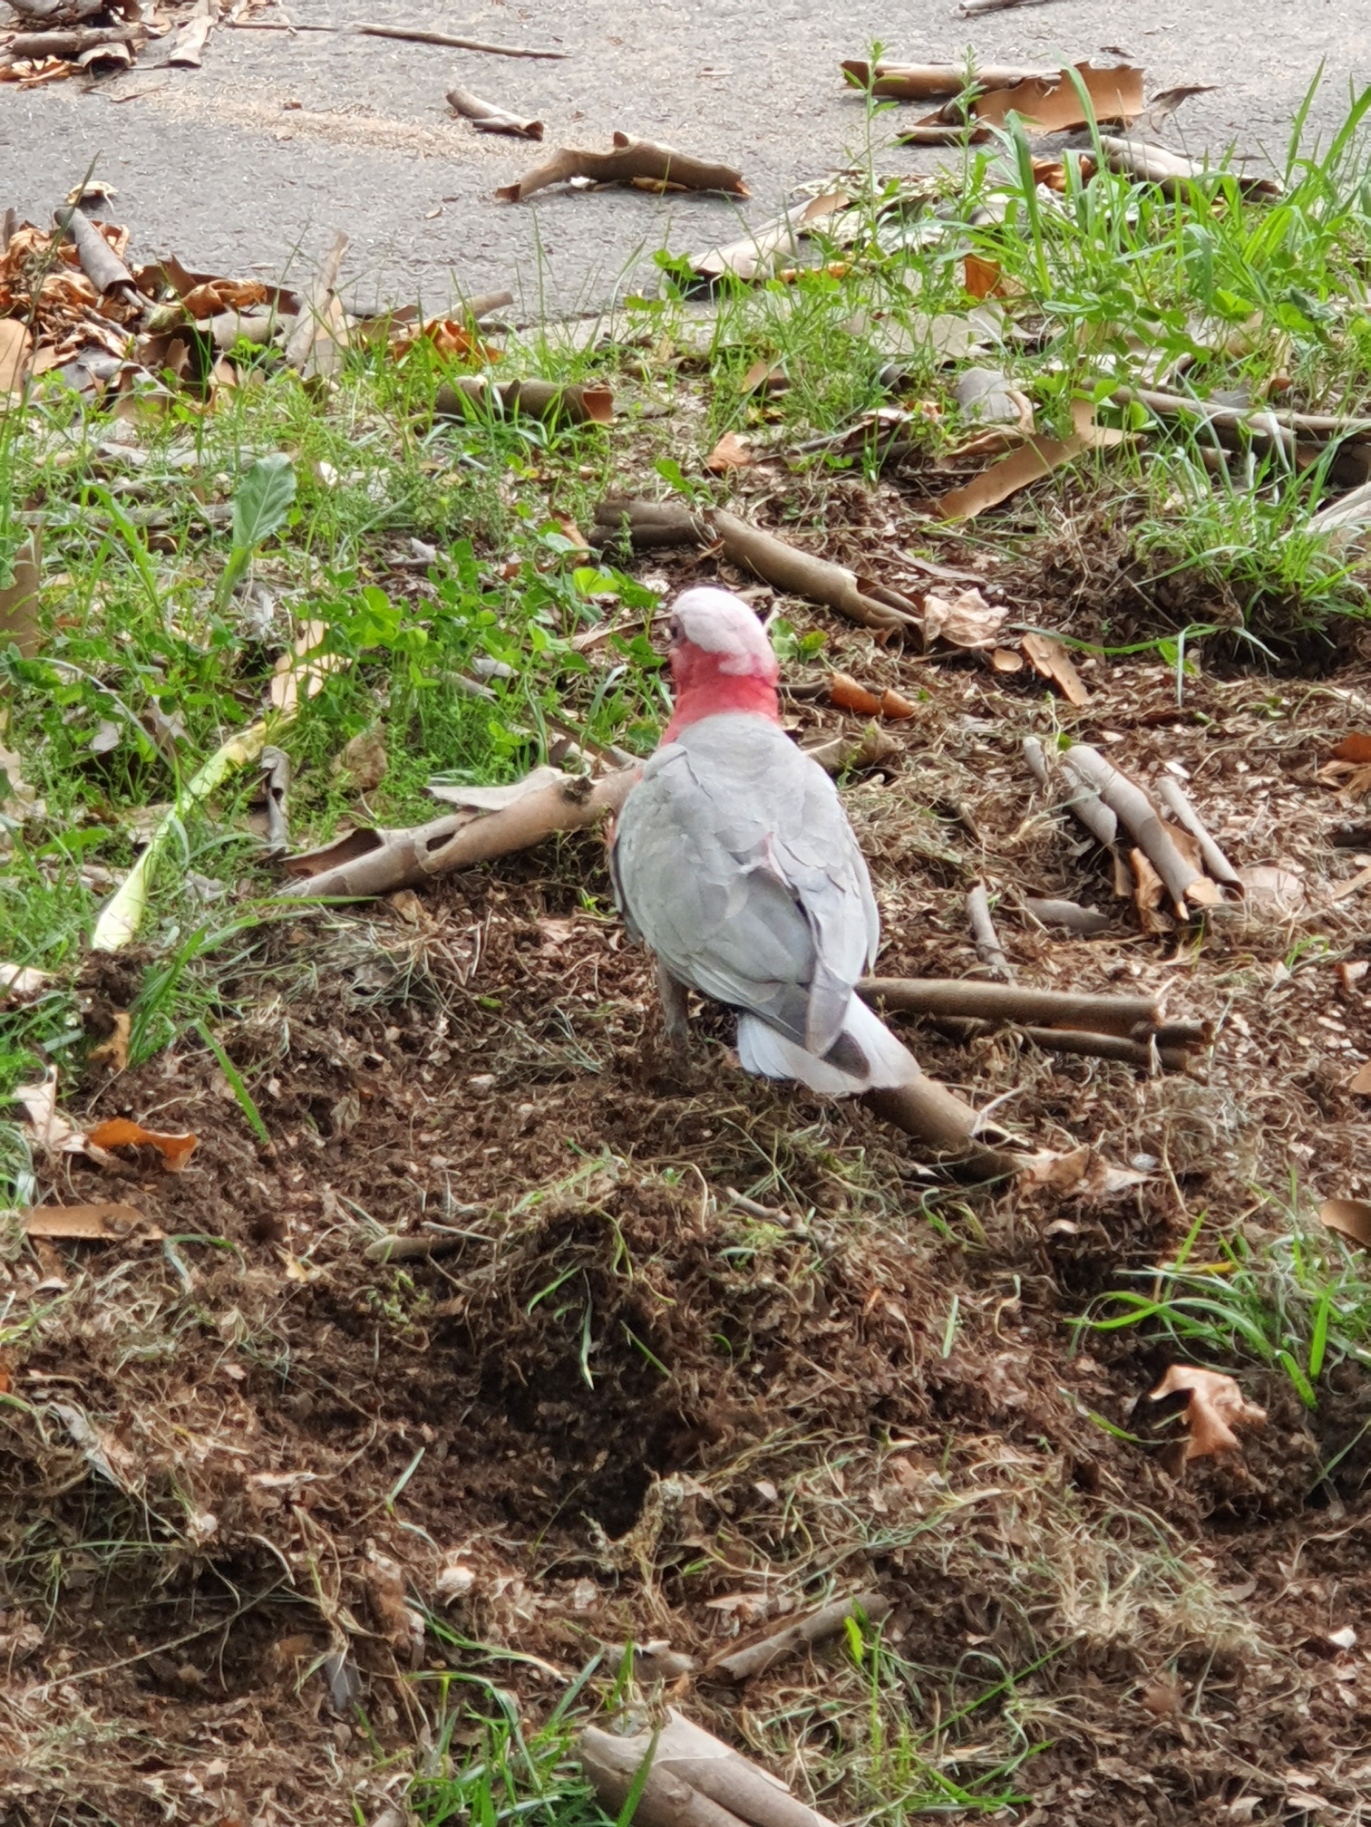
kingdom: Animalia
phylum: Chordata
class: Aves
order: Psittaciformes
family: Psittacidae
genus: Eolophus
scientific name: Eolophus roseicapilla
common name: Galah
